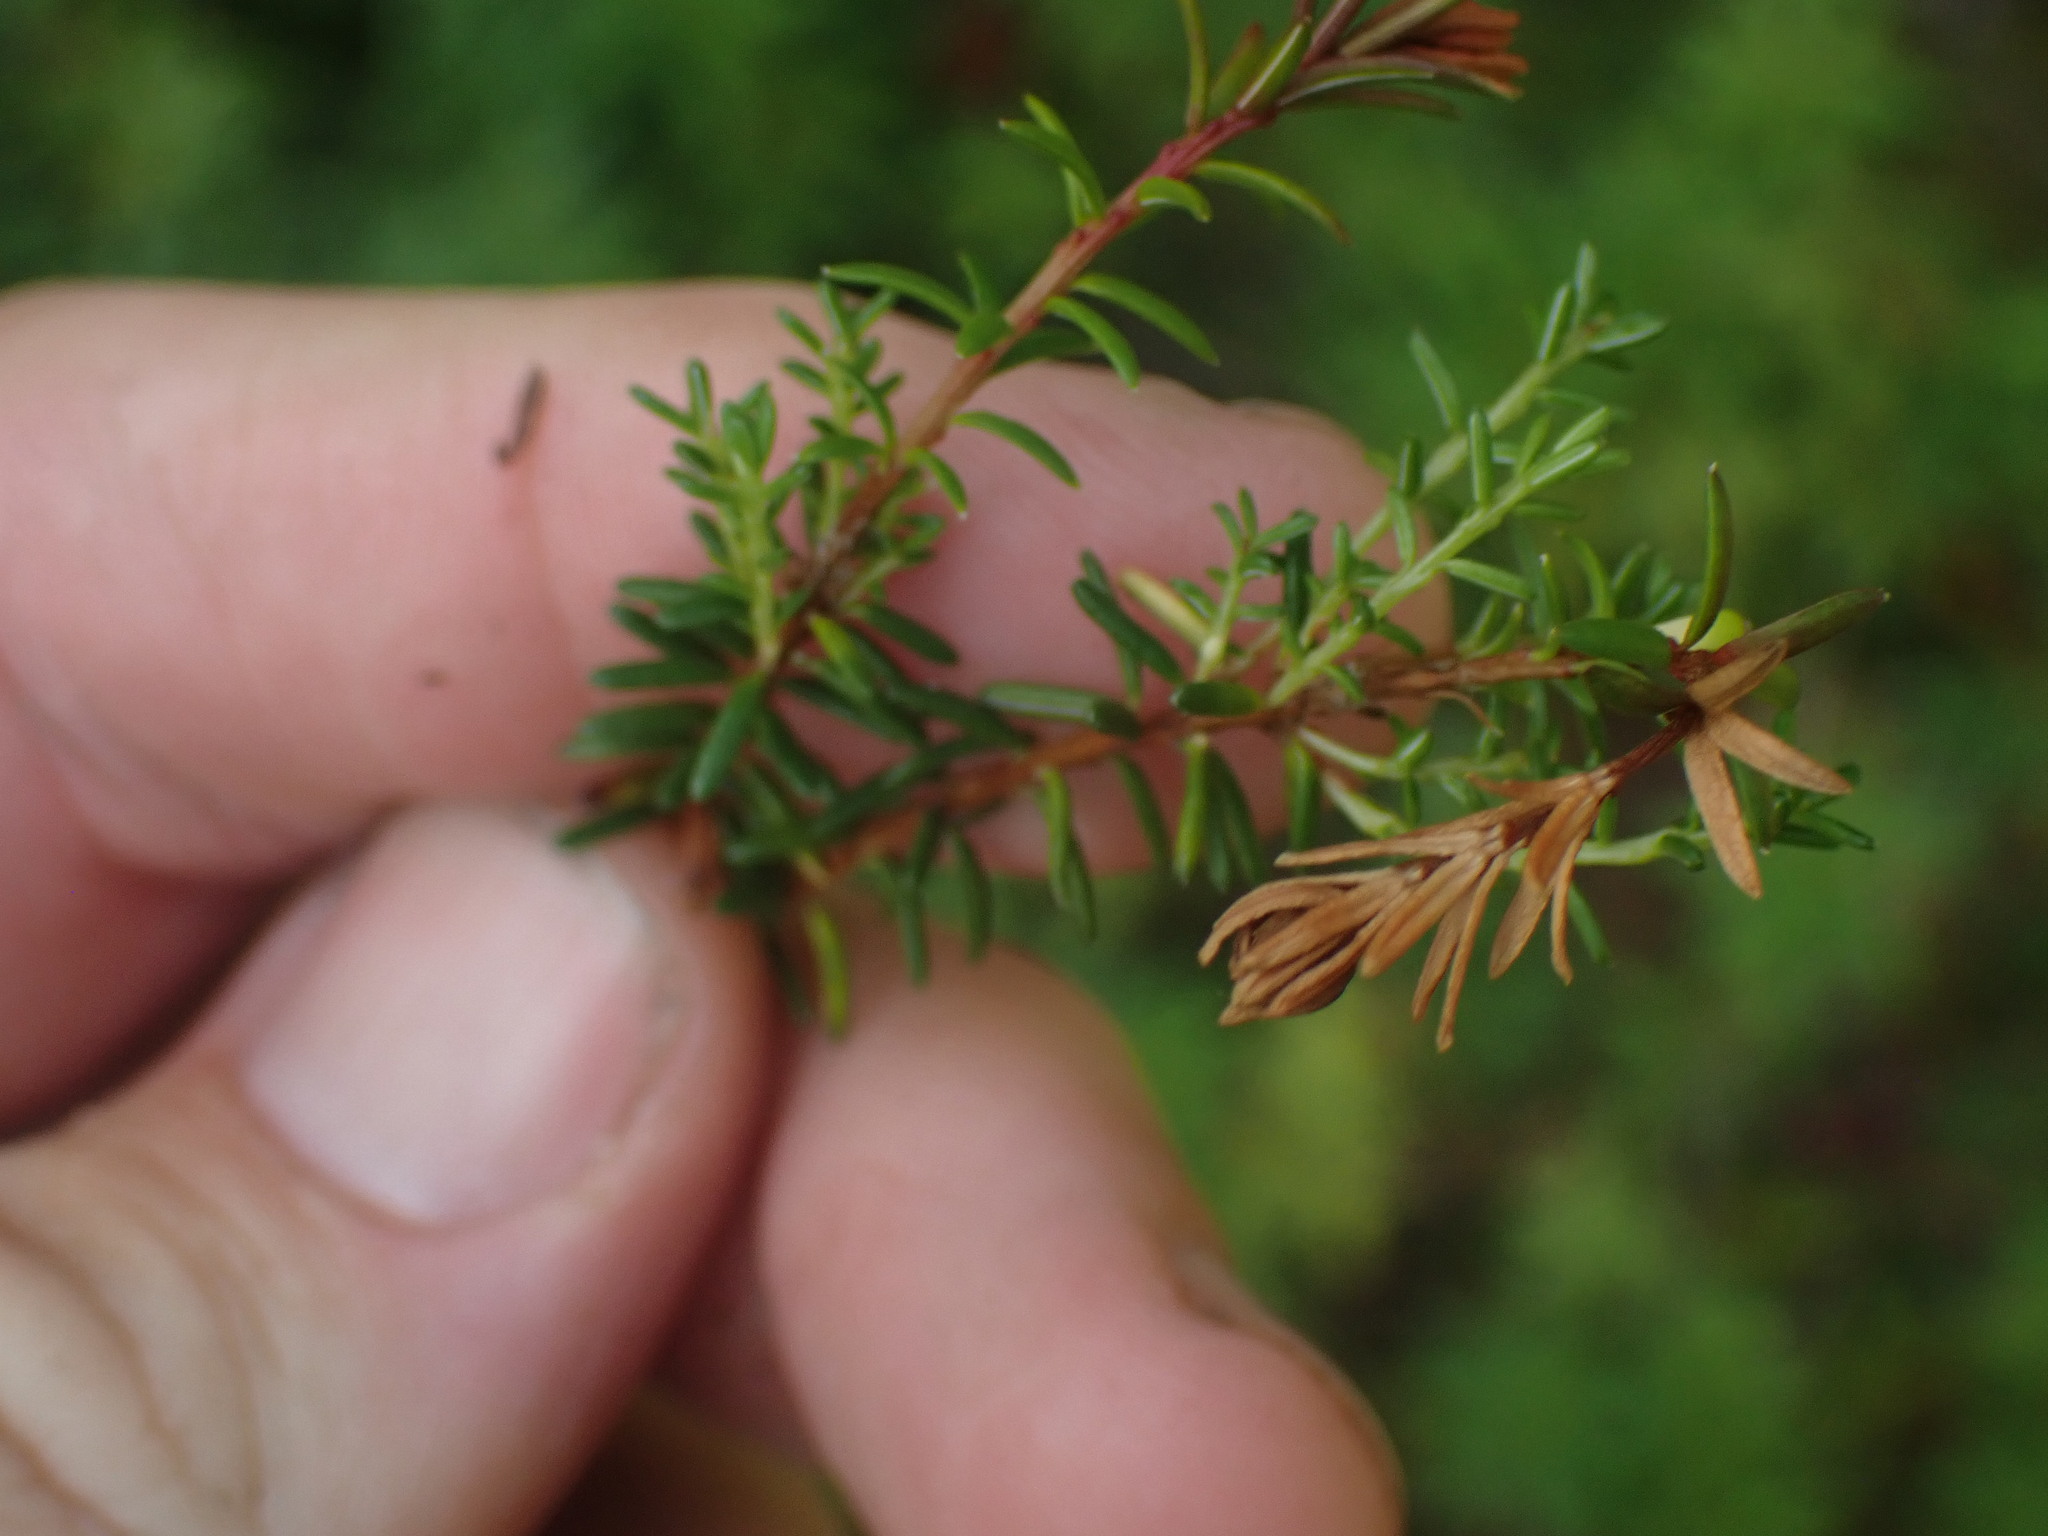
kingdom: Plantae
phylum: Tracheophyta
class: Magnoliopsida
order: Ericales
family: Ericaceae
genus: Empetrum
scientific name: Empetrum nigrum
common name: Black crowberry
